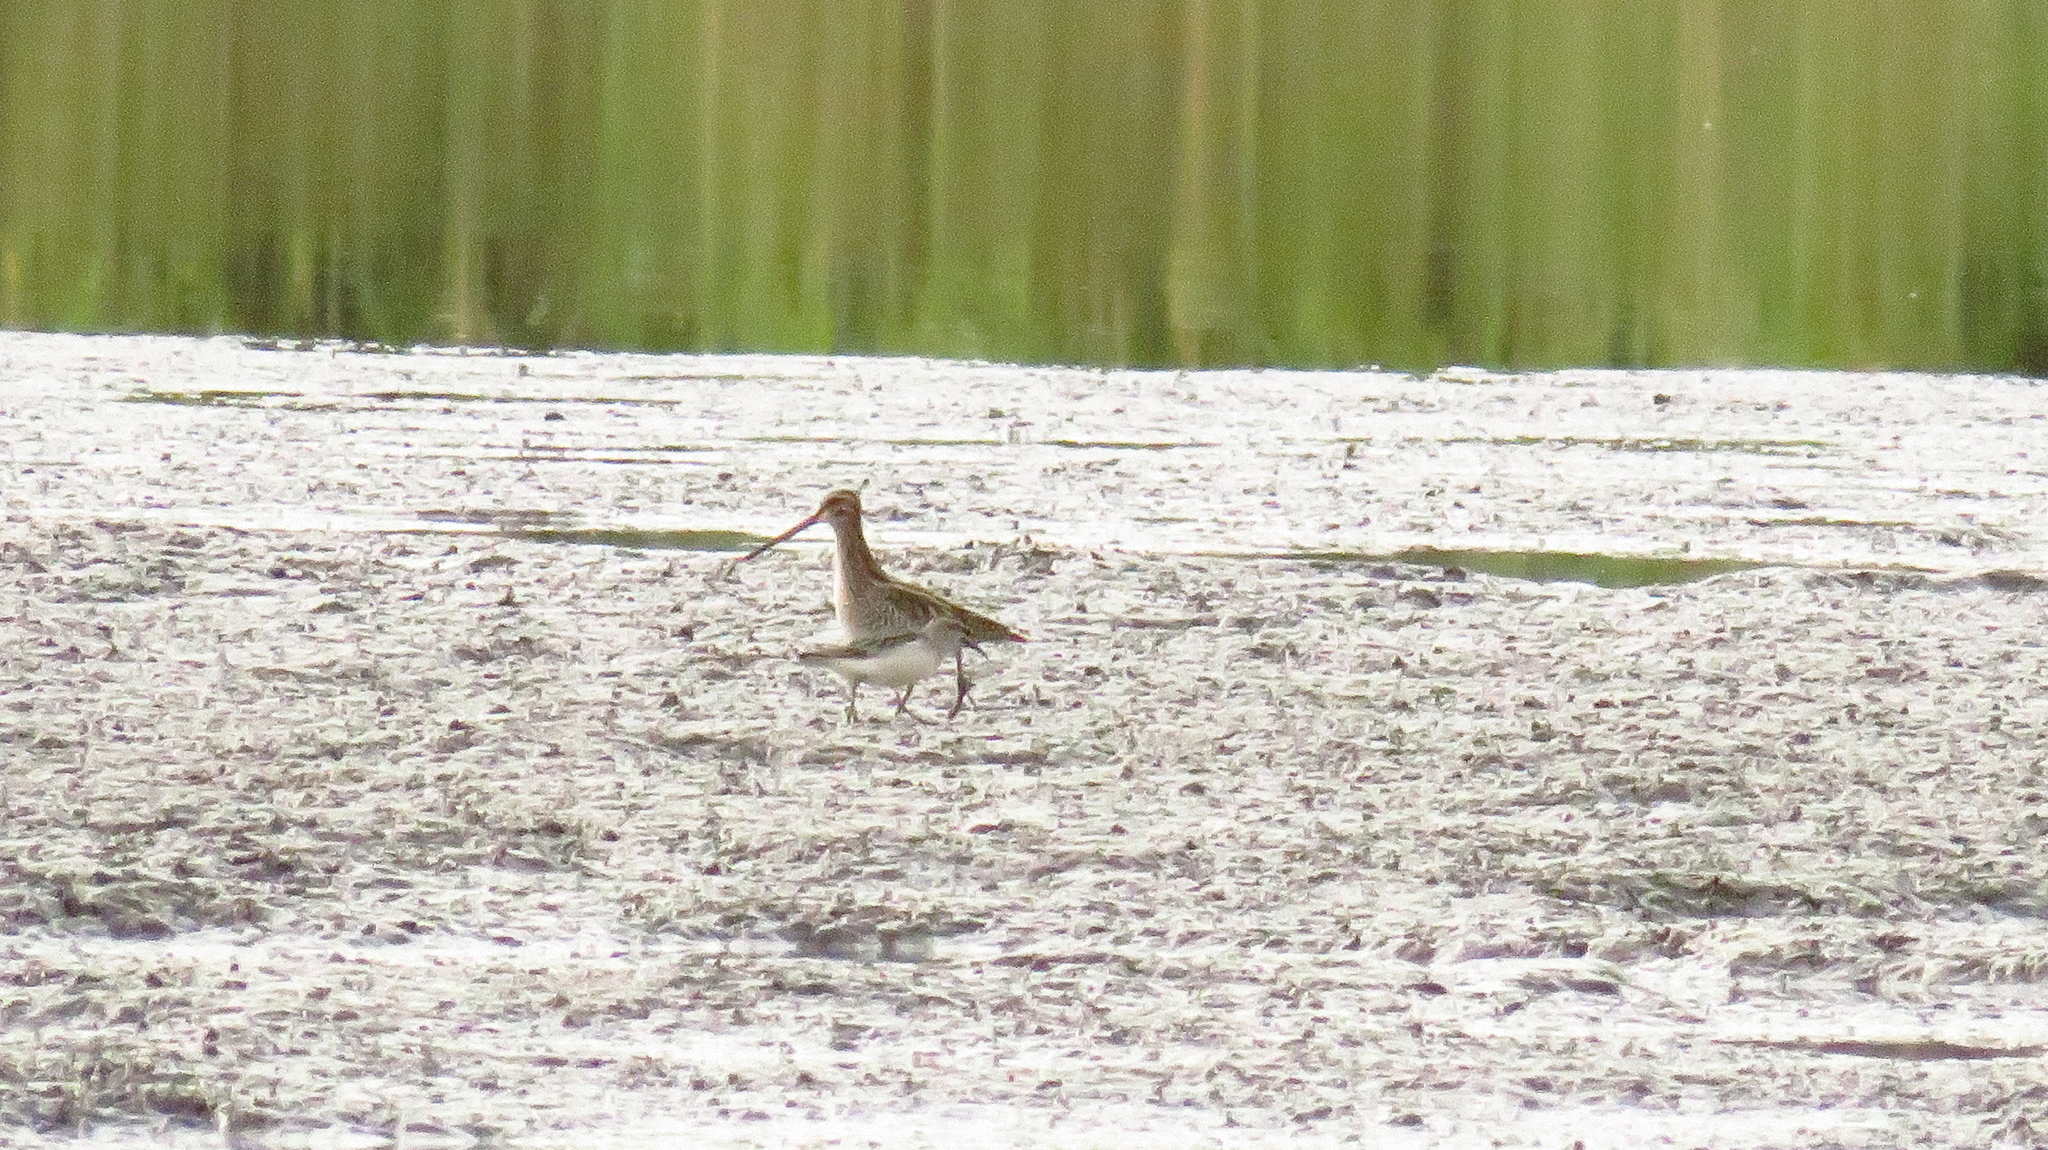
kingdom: Animalia
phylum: Chordata
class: Aves
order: Charadriiformes
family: Scolopacidae
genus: Gallinago
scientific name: Gallinago gallinago
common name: Common snipe
